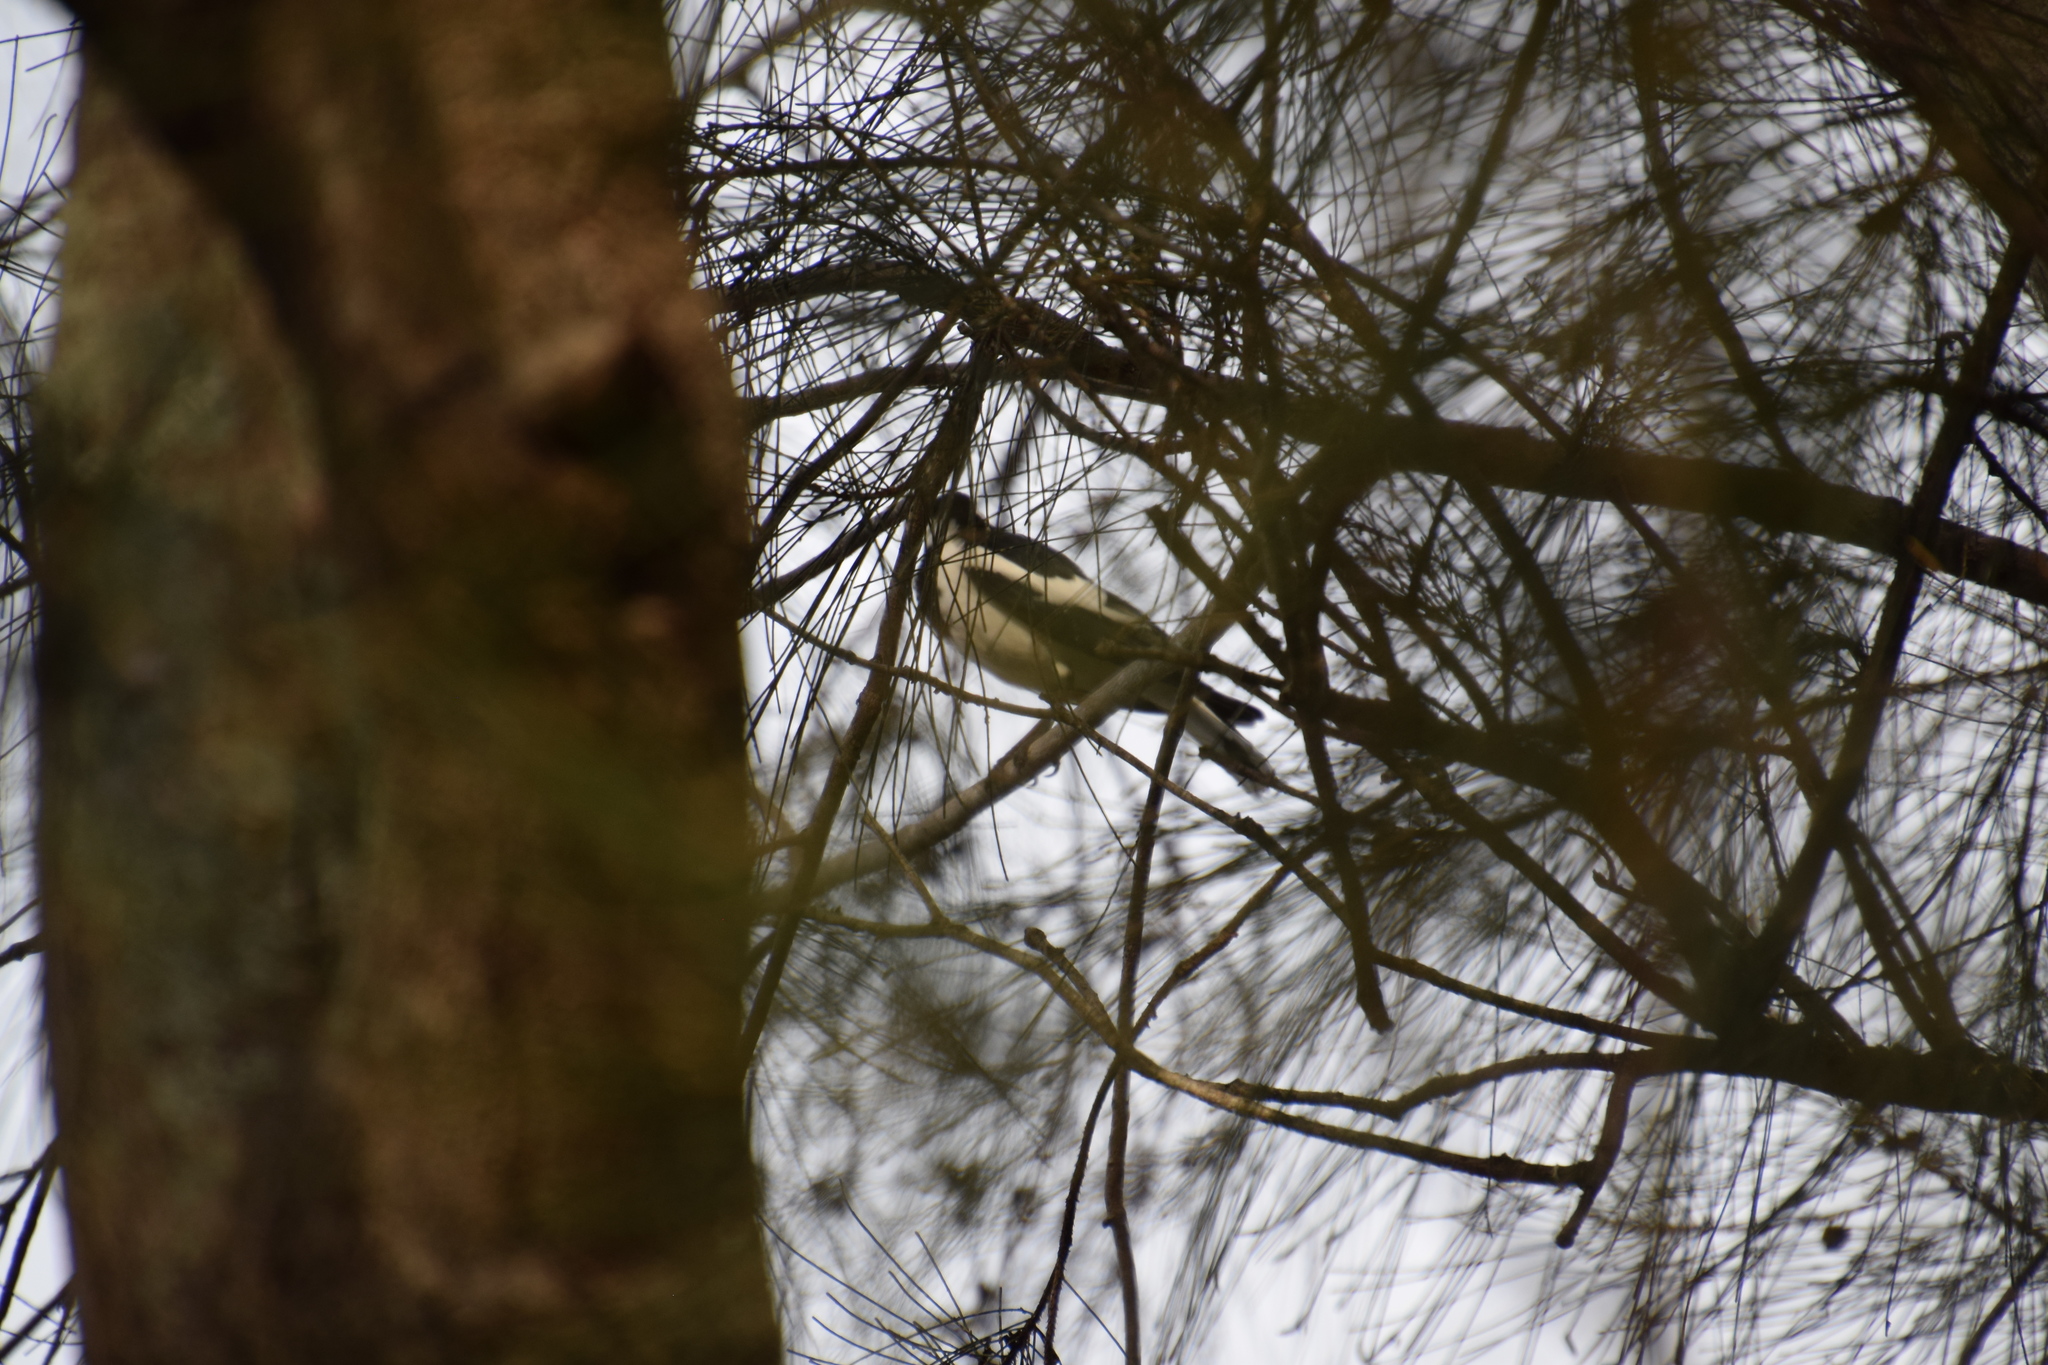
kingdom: Animalia
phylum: Chordata
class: Aves
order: Passeriformes
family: Monarchidae
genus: Grallina
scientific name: Grallina cyanoleuca
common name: Magpie-lark
